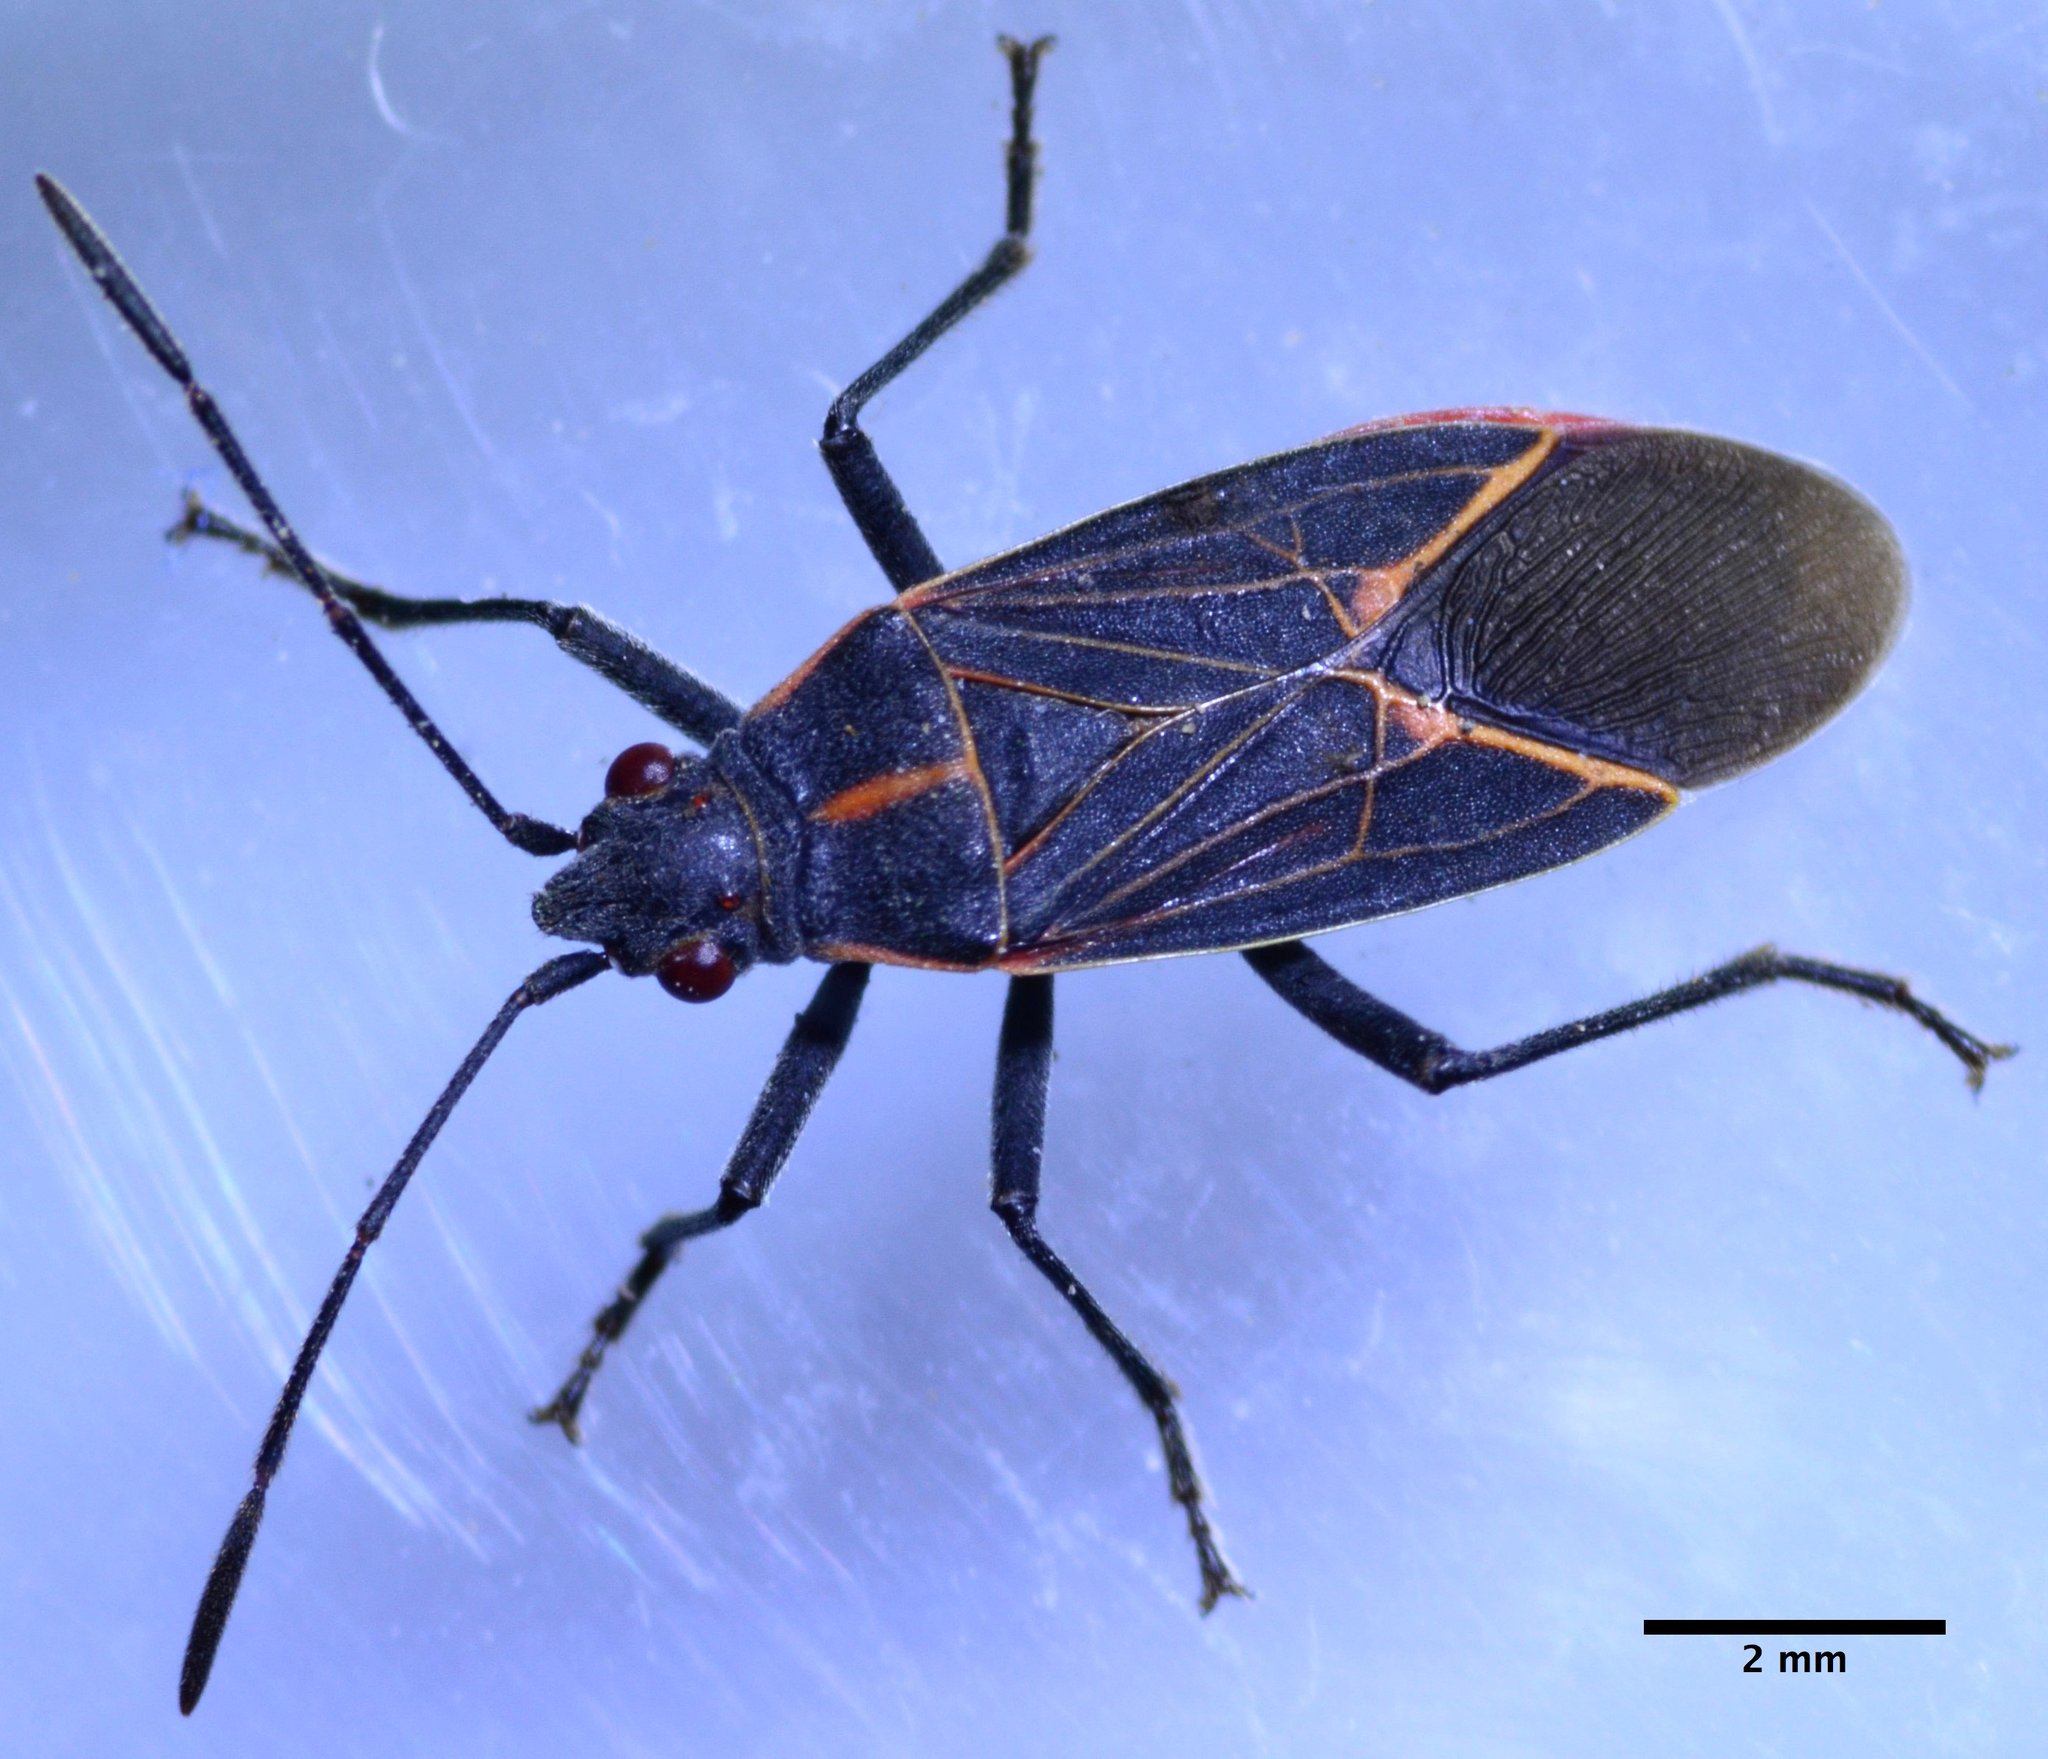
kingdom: Animalia
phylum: Arthropoda
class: Insecta
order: Hemiptera
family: Rhopalidae
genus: Boisea
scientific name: Boisea rubrolineata
